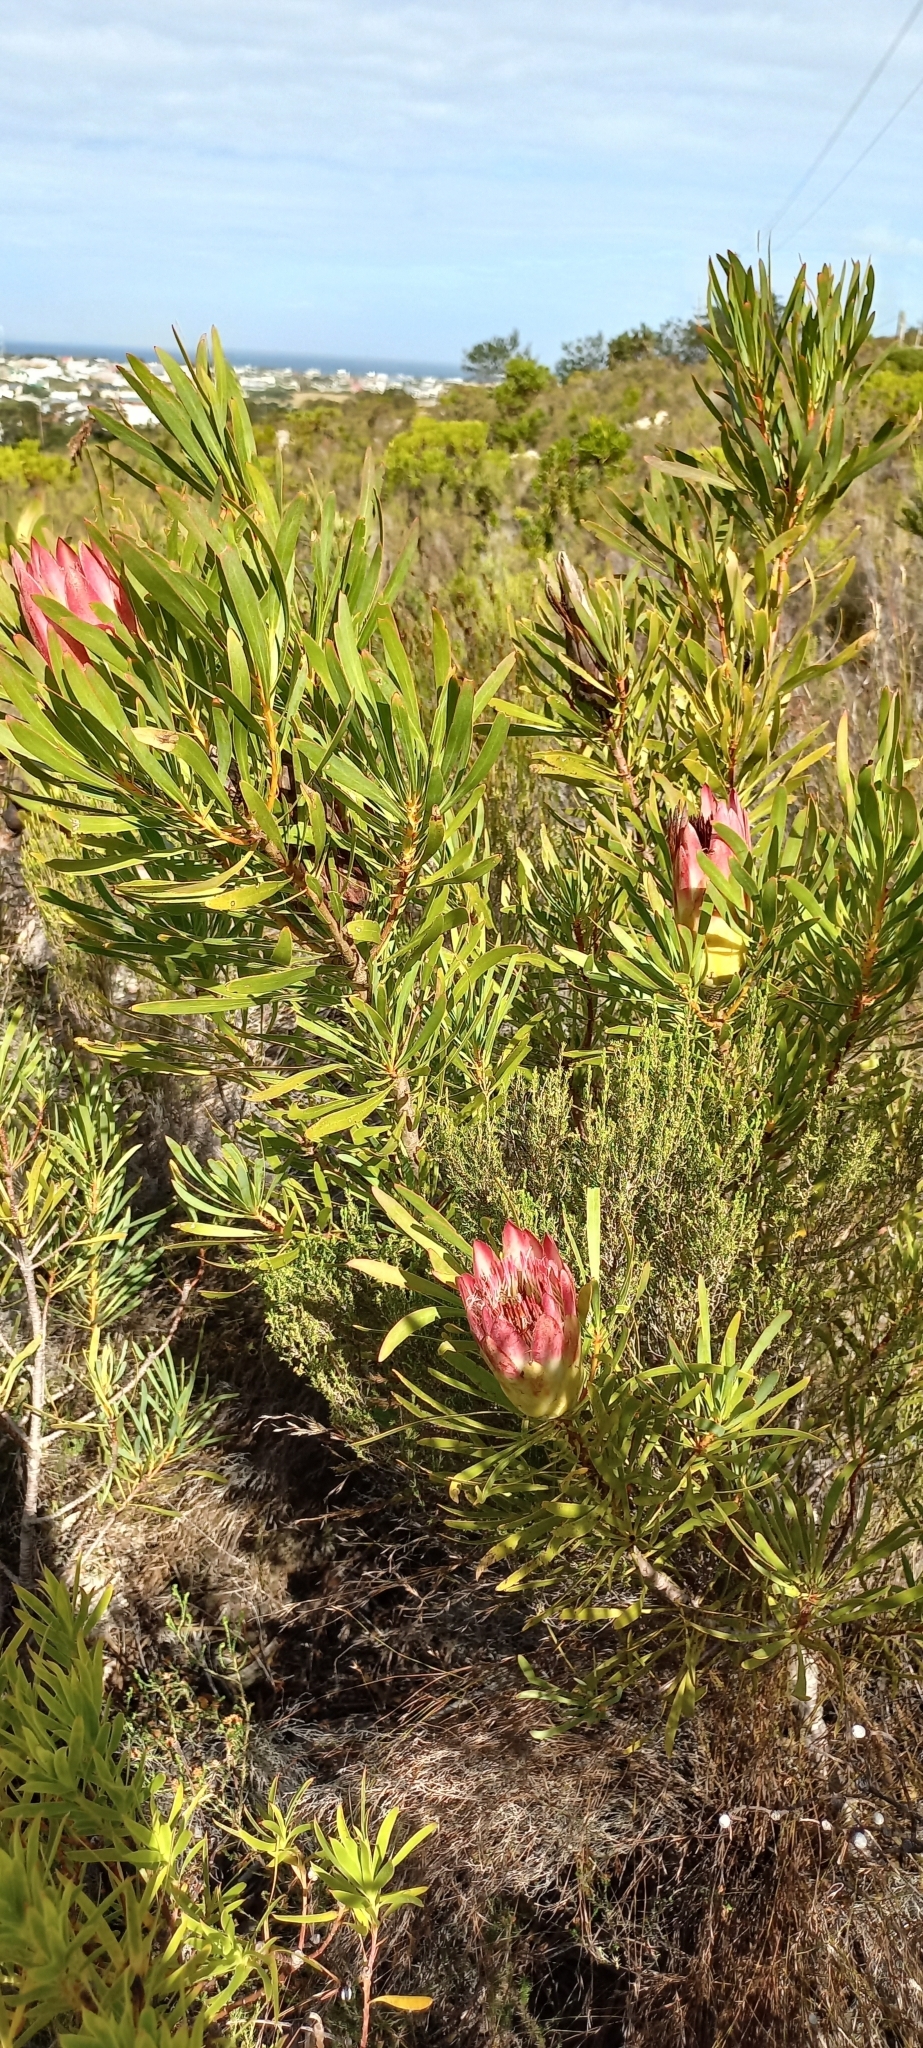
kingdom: Plantae
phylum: Tracheophyta
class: Magnoliopsida
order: Proteales
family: Proteaceae
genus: Protea
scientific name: Protea repens
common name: Sugarbush
